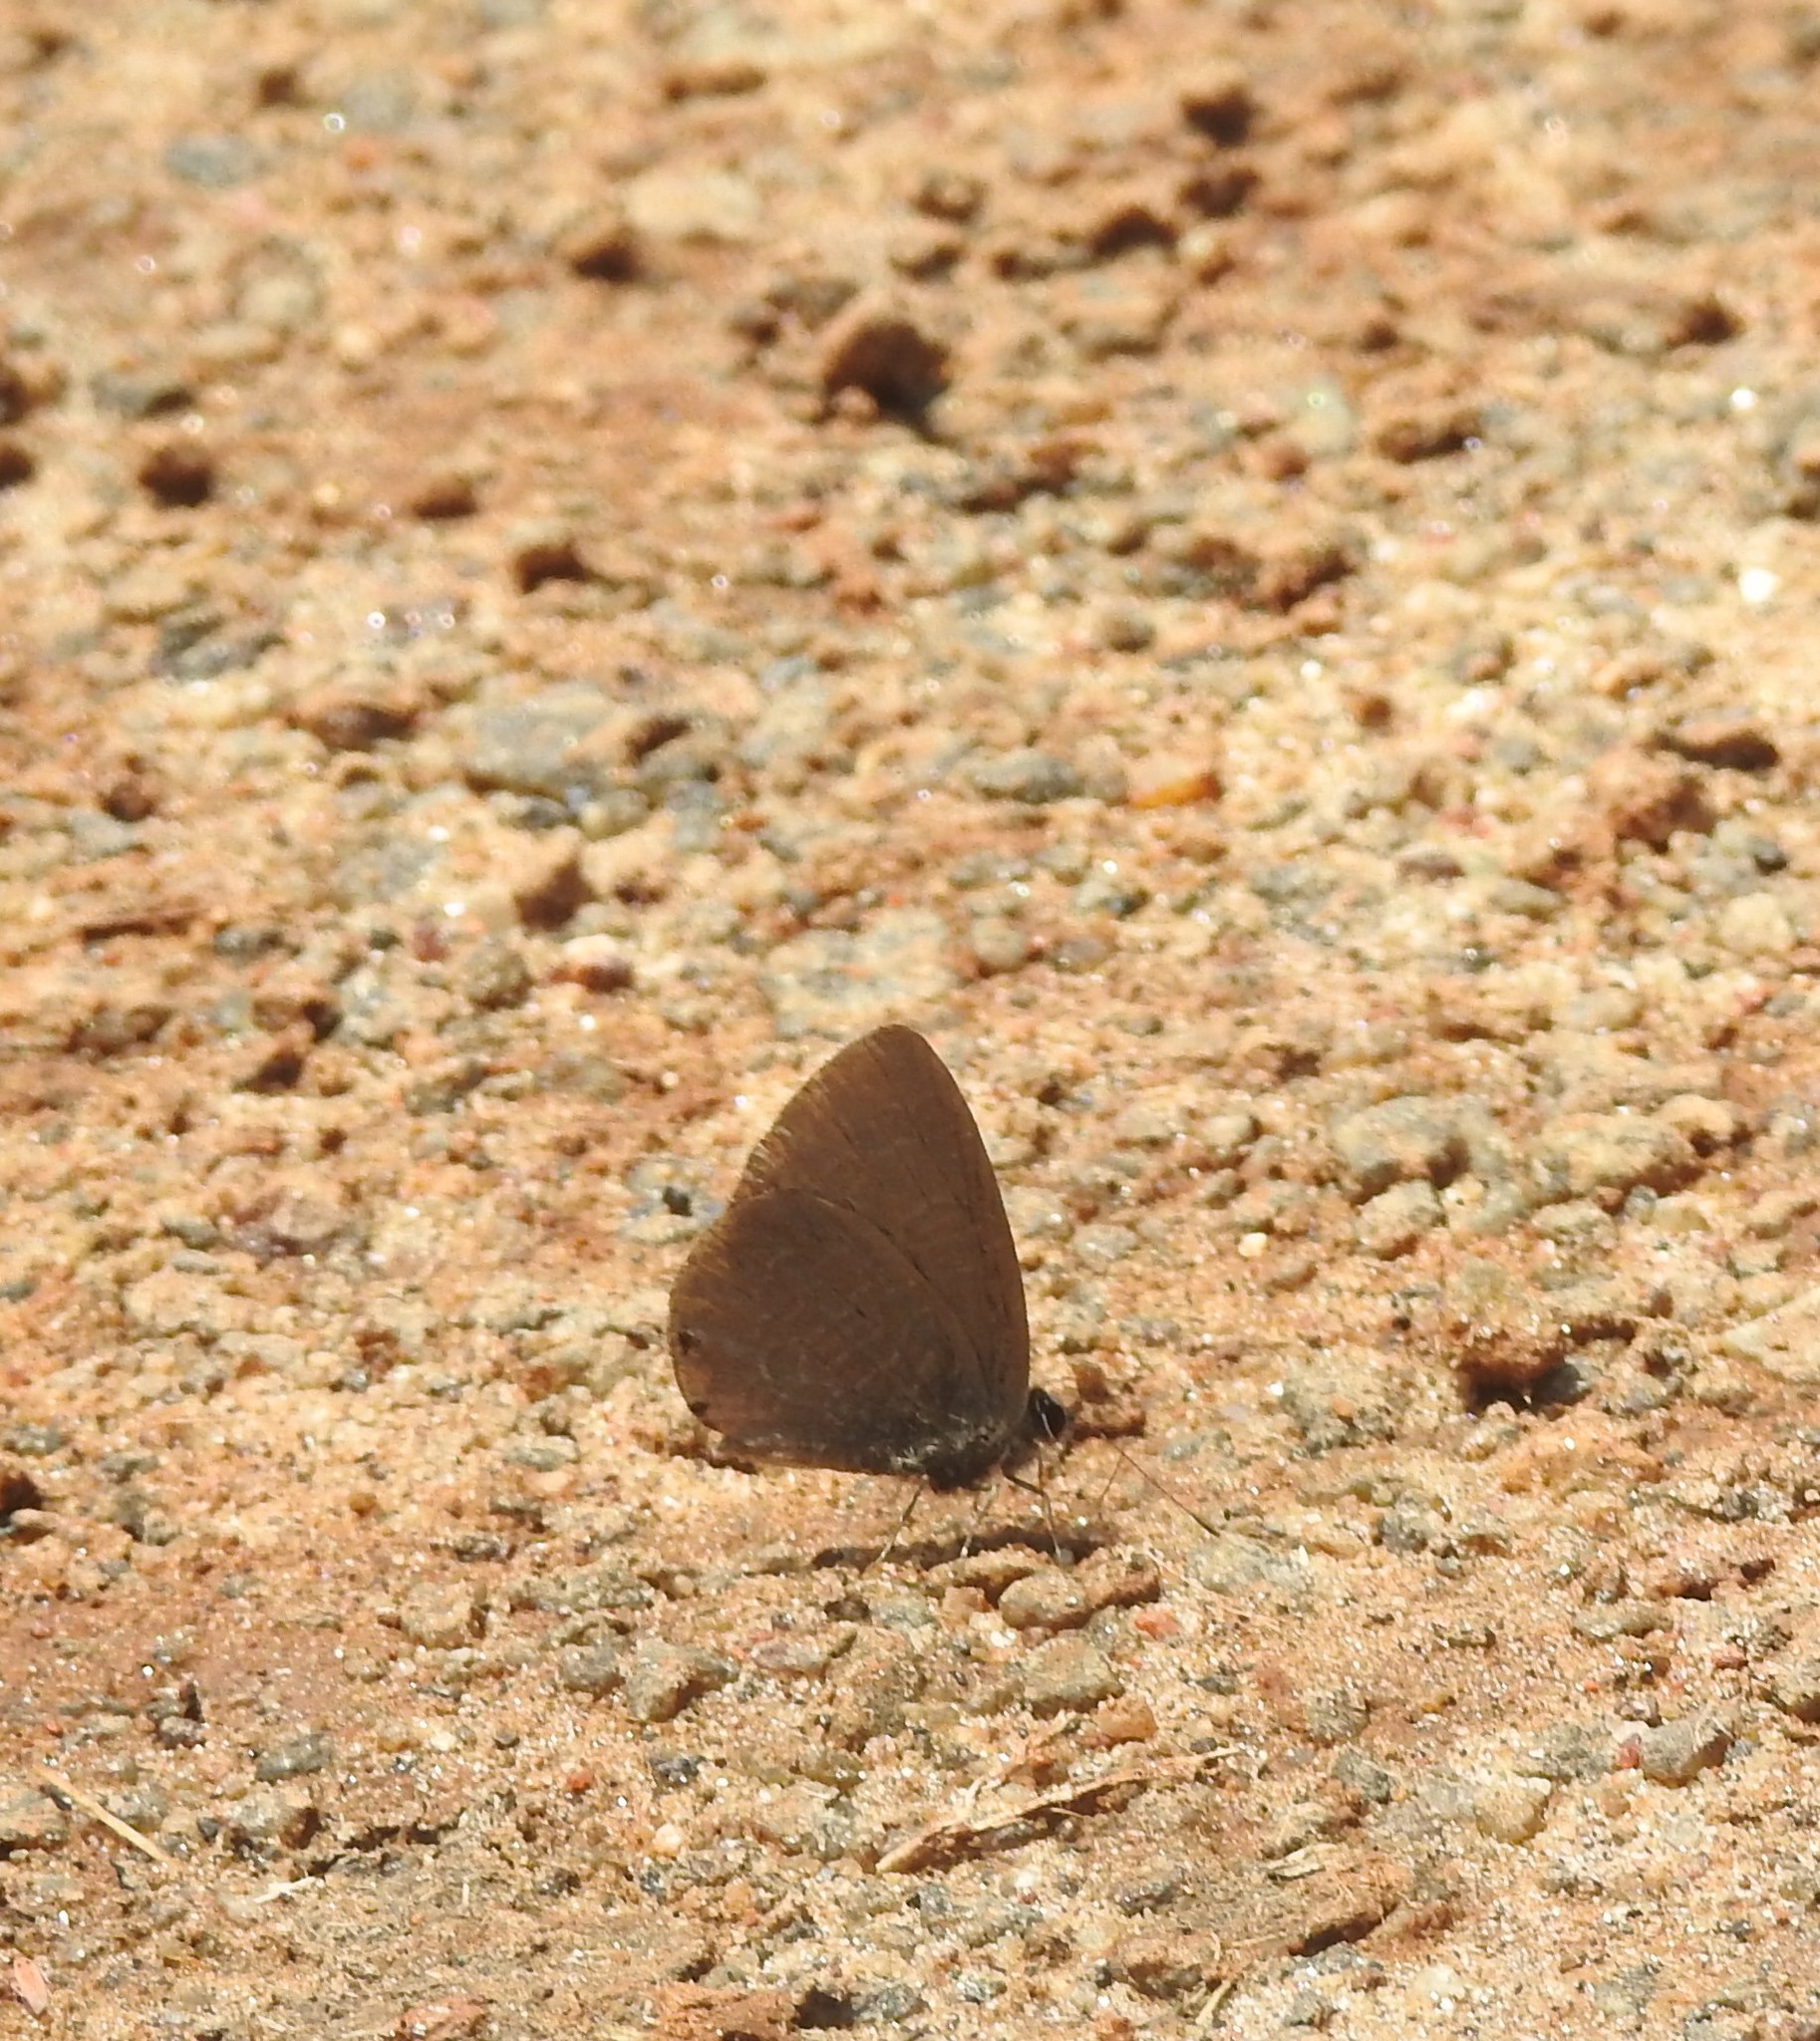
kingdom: Animalia
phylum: Arthropoda
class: Insecta
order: Lepidoptera
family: Lycaenidae
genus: Petrelaea
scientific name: Petrelaea dana
